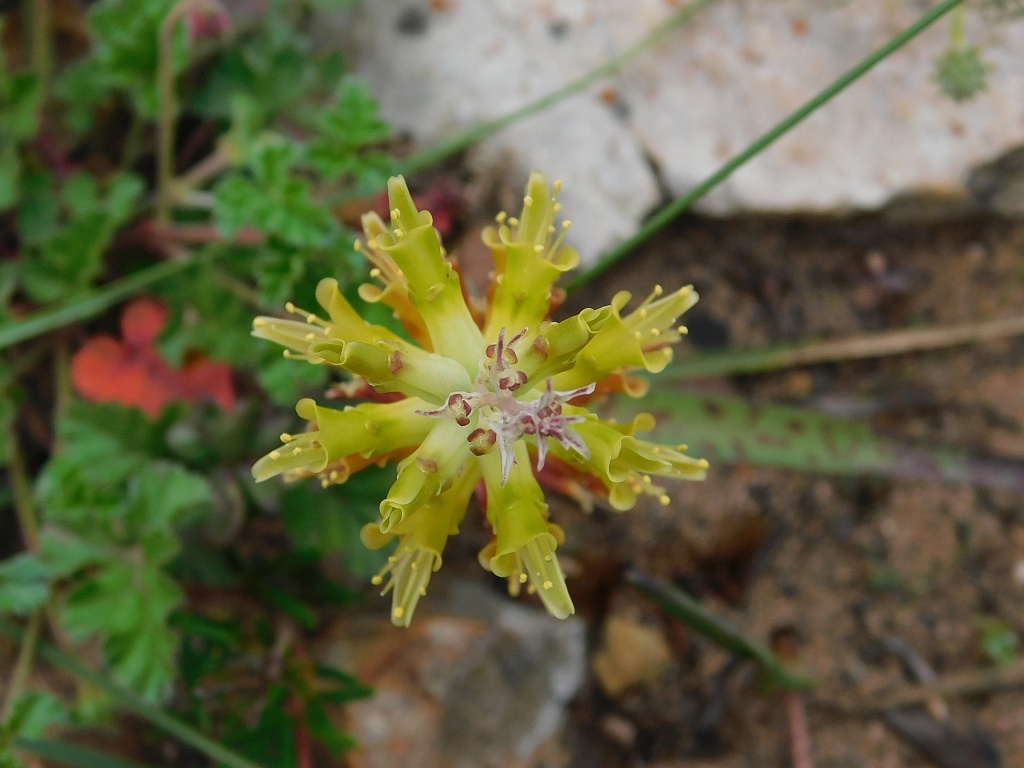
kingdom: Plantae
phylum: Tracheophyta
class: Liliopsida
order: Asparagales
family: Asparagaceae
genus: Lachenalia
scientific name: Lachenalia orchioides
